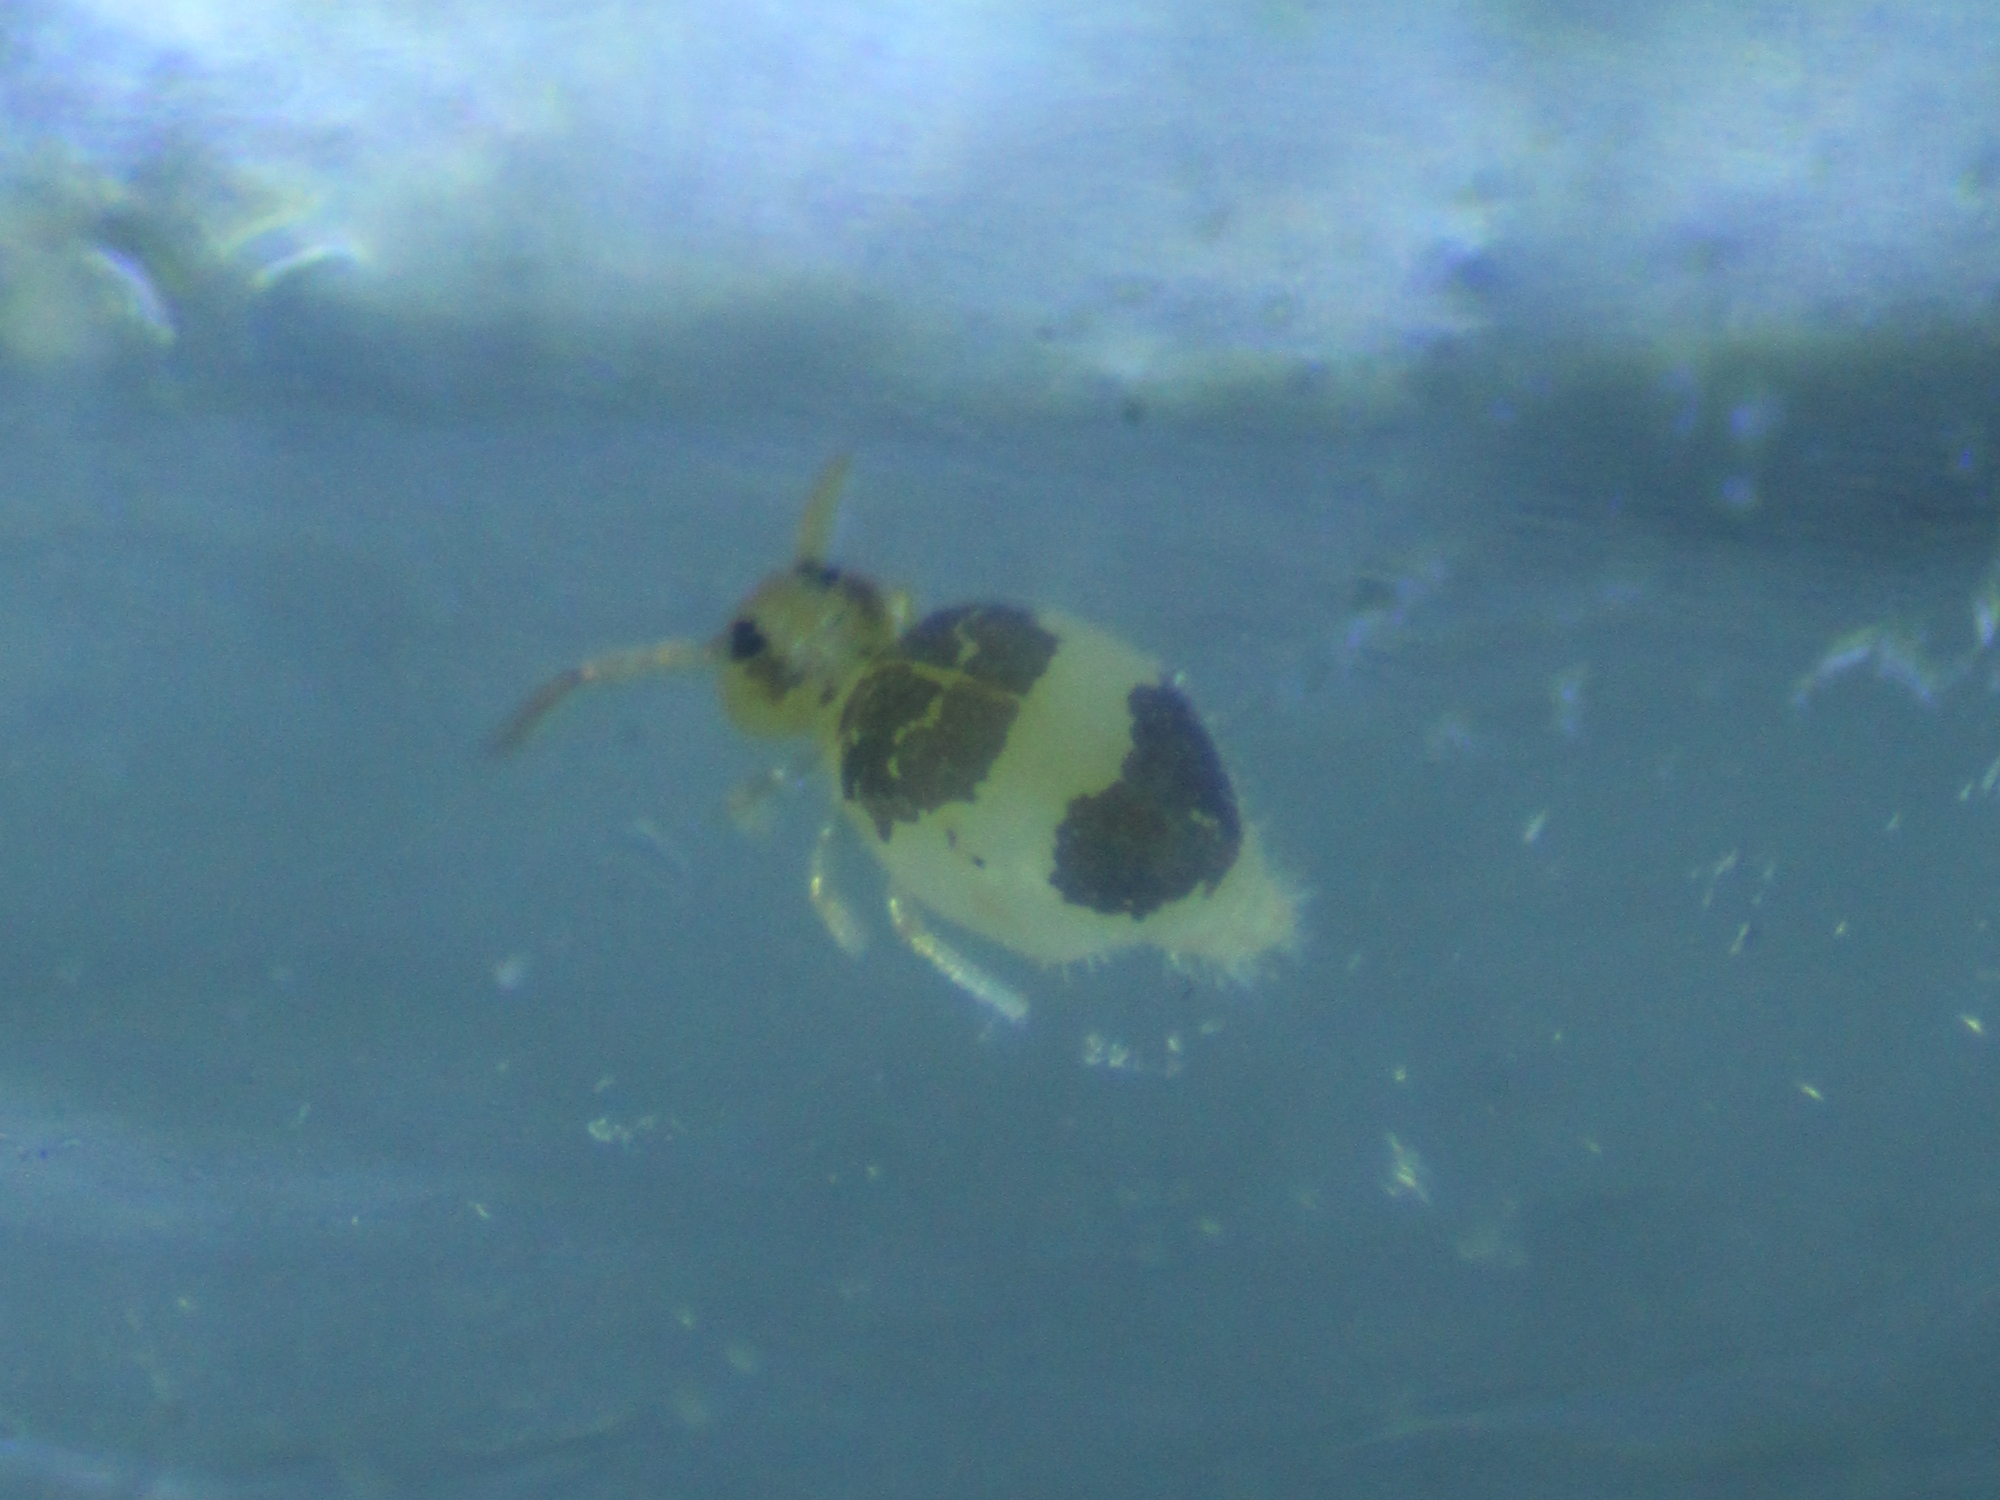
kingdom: Animalia
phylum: Arthropoda
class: Collembola
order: Symphypleona
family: Bourletiellidae
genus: Deuterosminthurus
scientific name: Deuterosminthurus bicinctus
